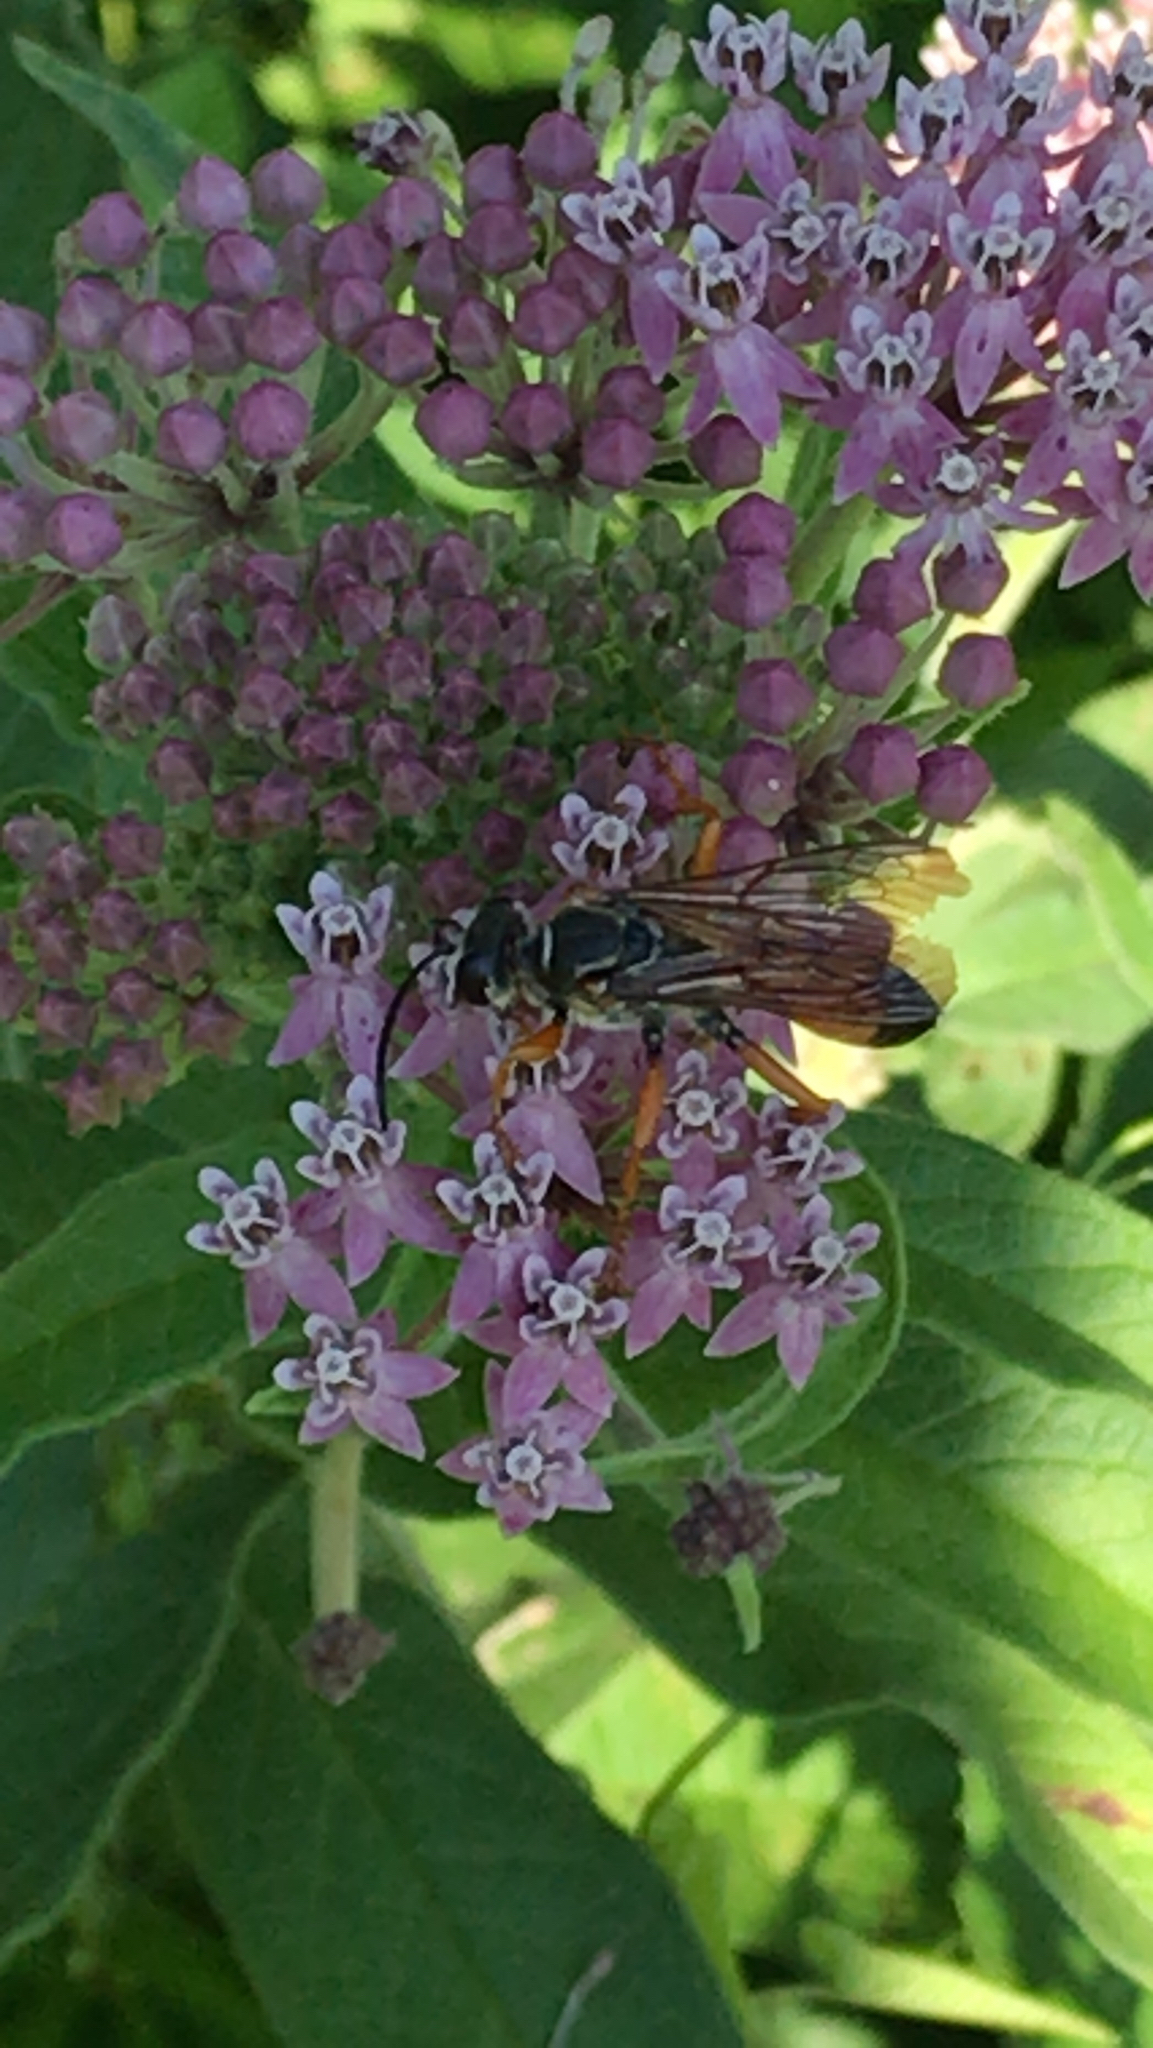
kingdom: Animalia
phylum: Arthropoda
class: Insecta
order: Hymenoptera
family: Sphecidae
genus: Sphex
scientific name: Sphex ichneumoneus
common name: Great golden digger wasp
